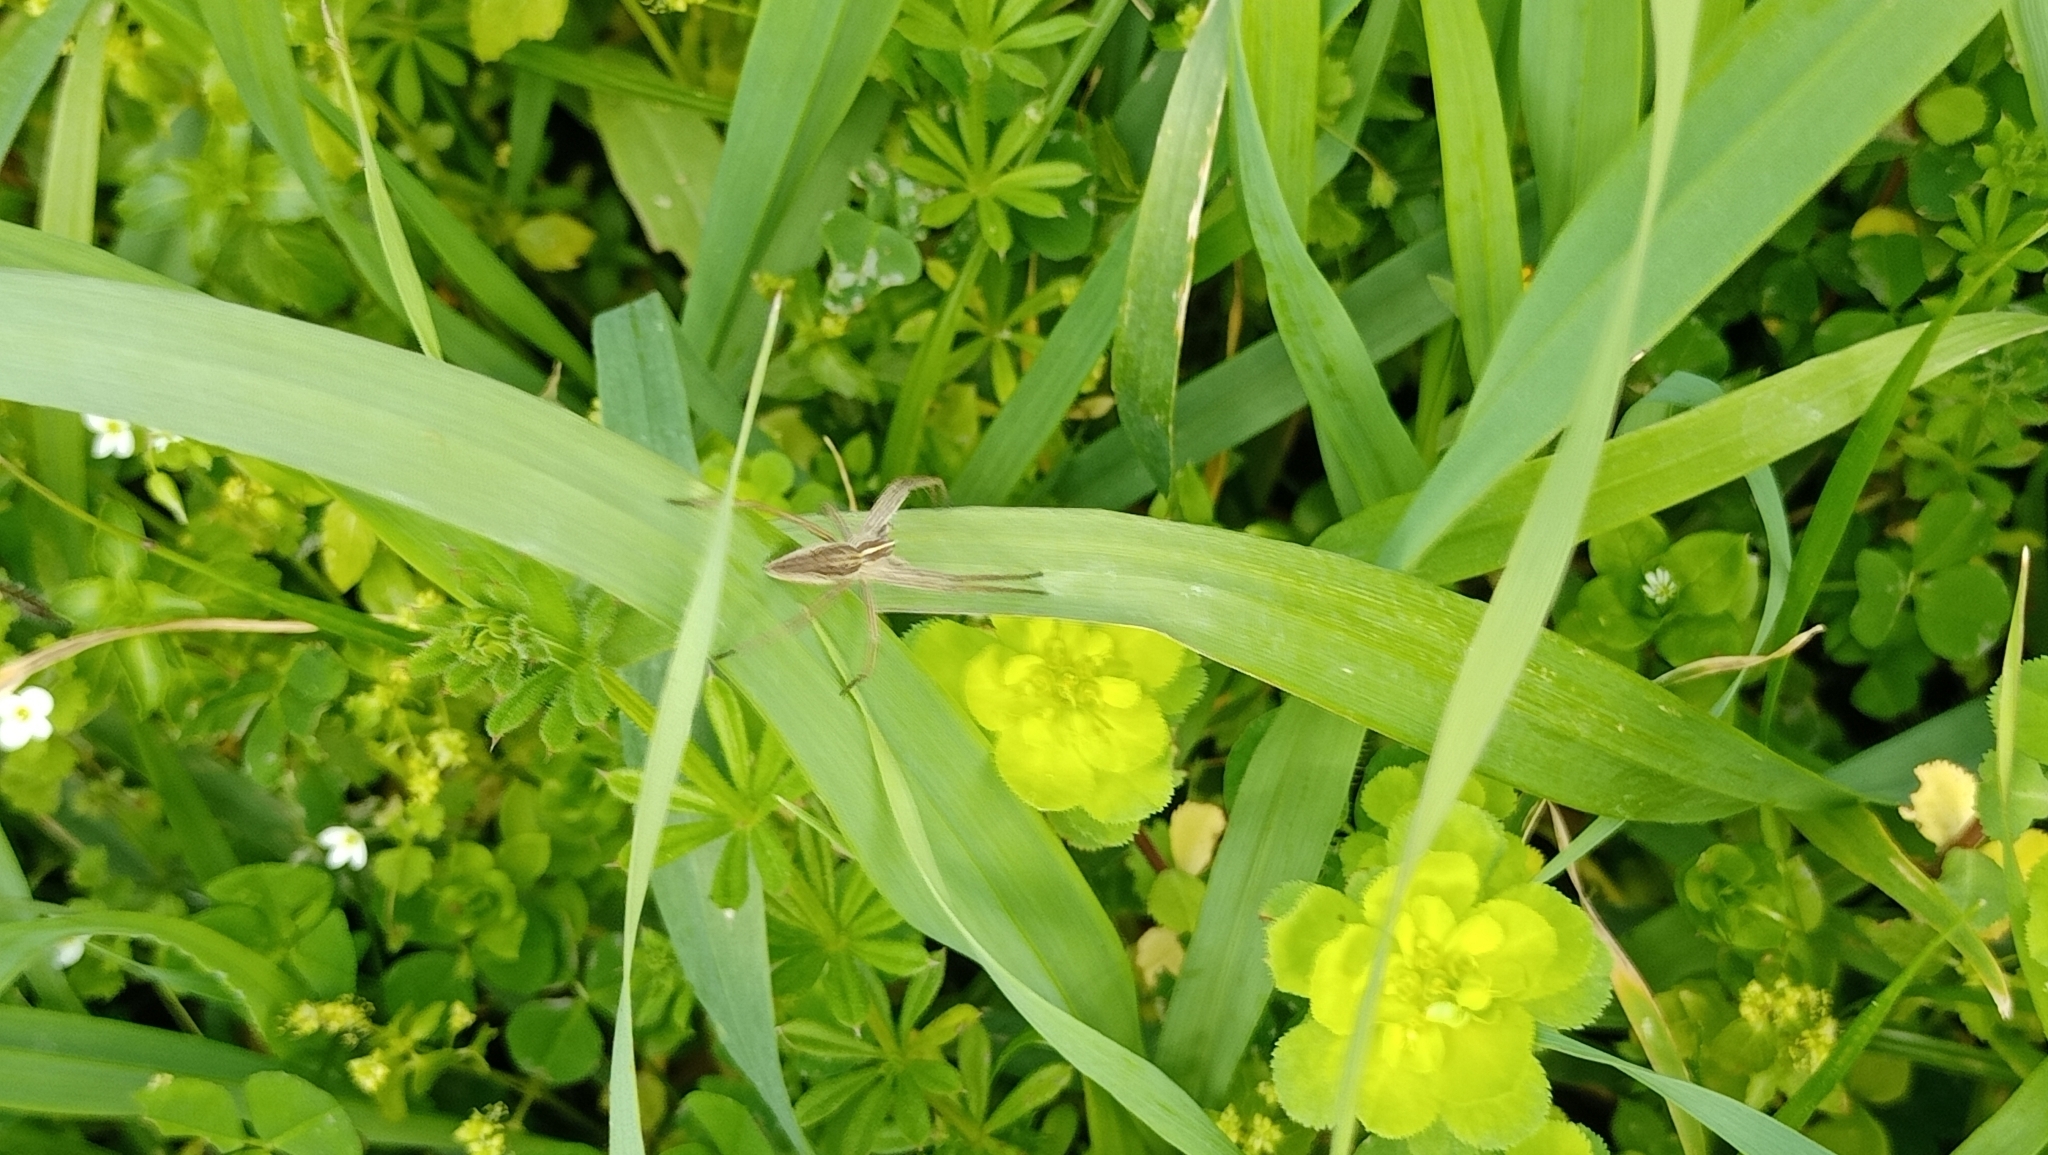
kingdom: Animalia
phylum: Arthropoda
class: Arachnida
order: Araneae
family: Pisauridae
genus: Pisaura
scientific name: Pisaura mirabilis
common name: Tent spider
